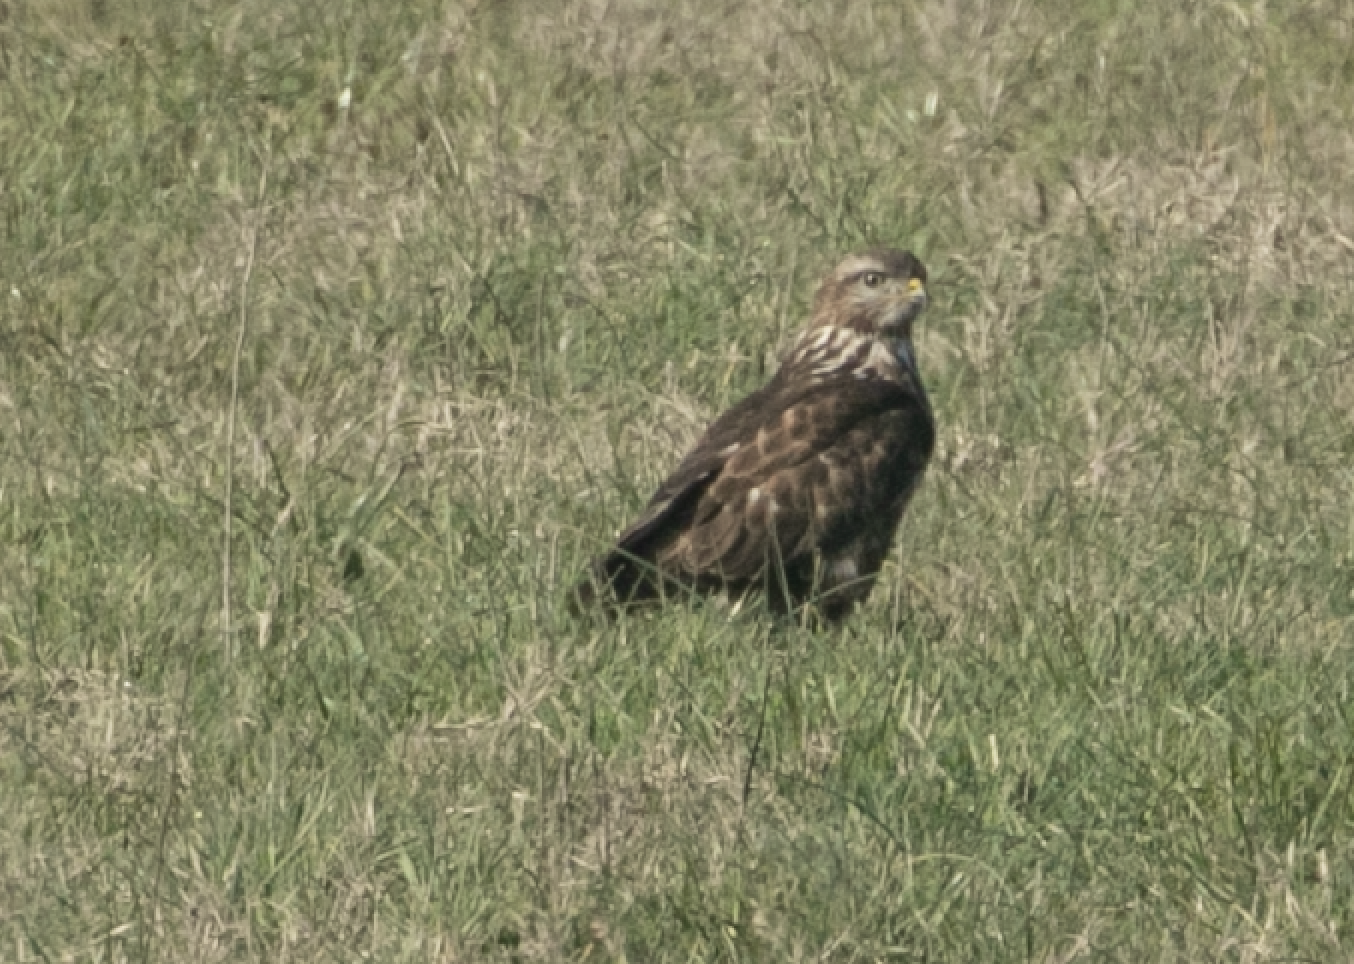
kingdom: Animalia
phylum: Chordata
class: Aves
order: Accipitriformes
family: Accipitridae
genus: Buteo
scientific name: Buteo buteo
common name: Common buzzard
